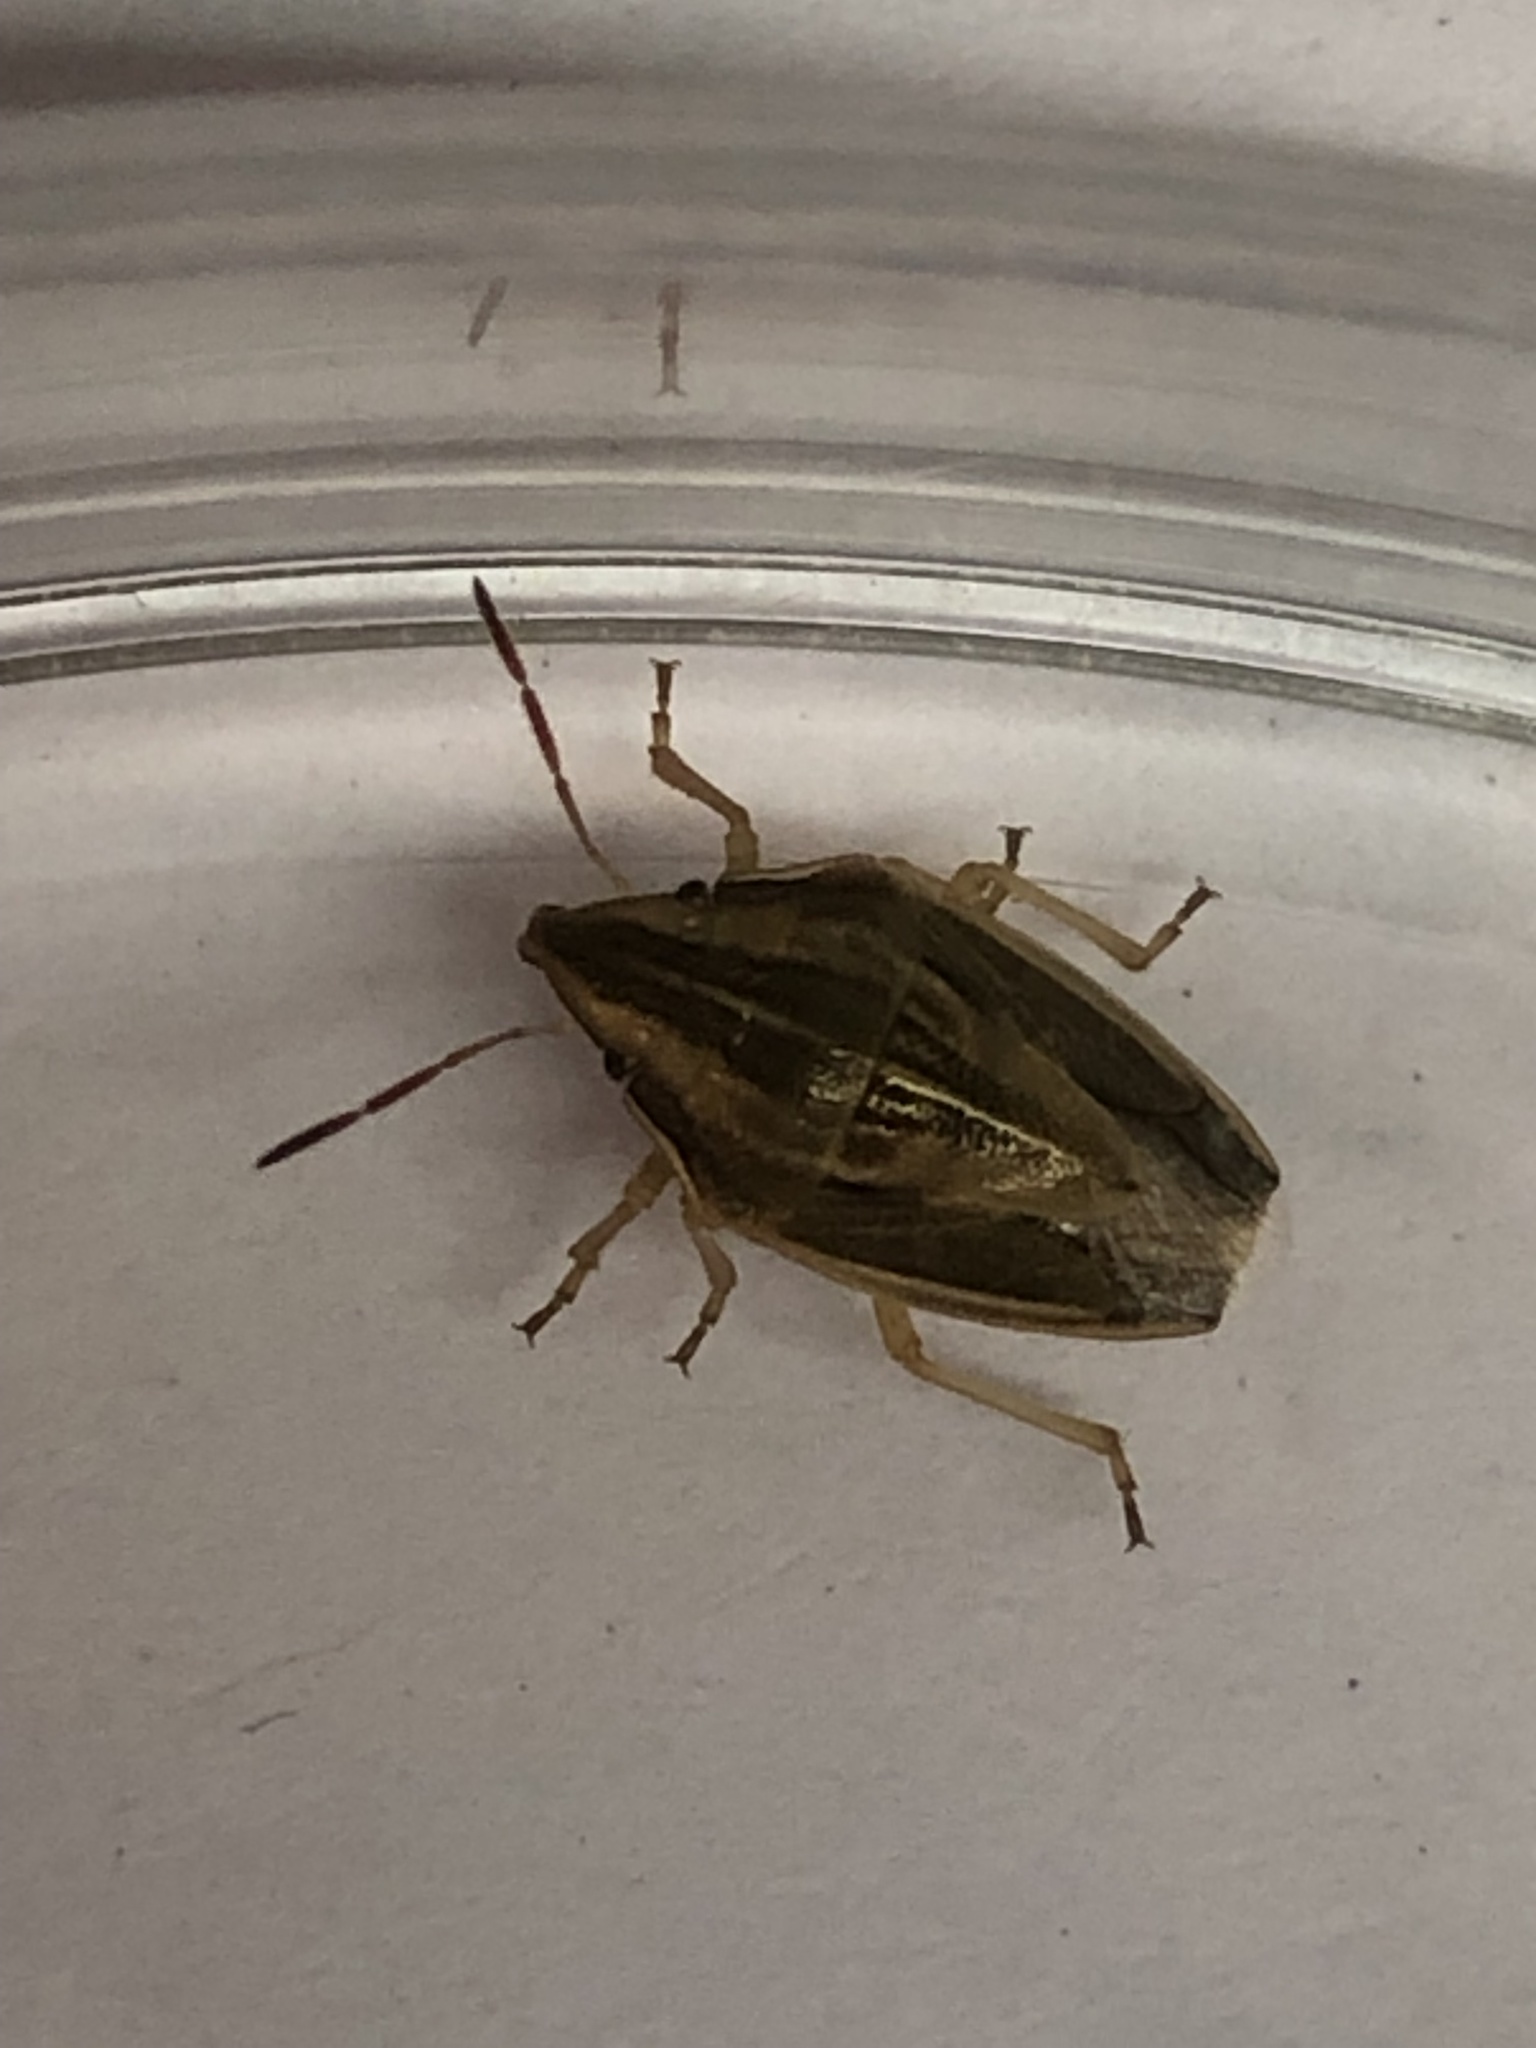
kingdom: Animalia
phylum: Arthropoda
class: Insecta
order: Hemiptera
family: Pentatomidae
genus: Aelia
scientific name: Aelia acuminata
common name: Bishop's mitre
